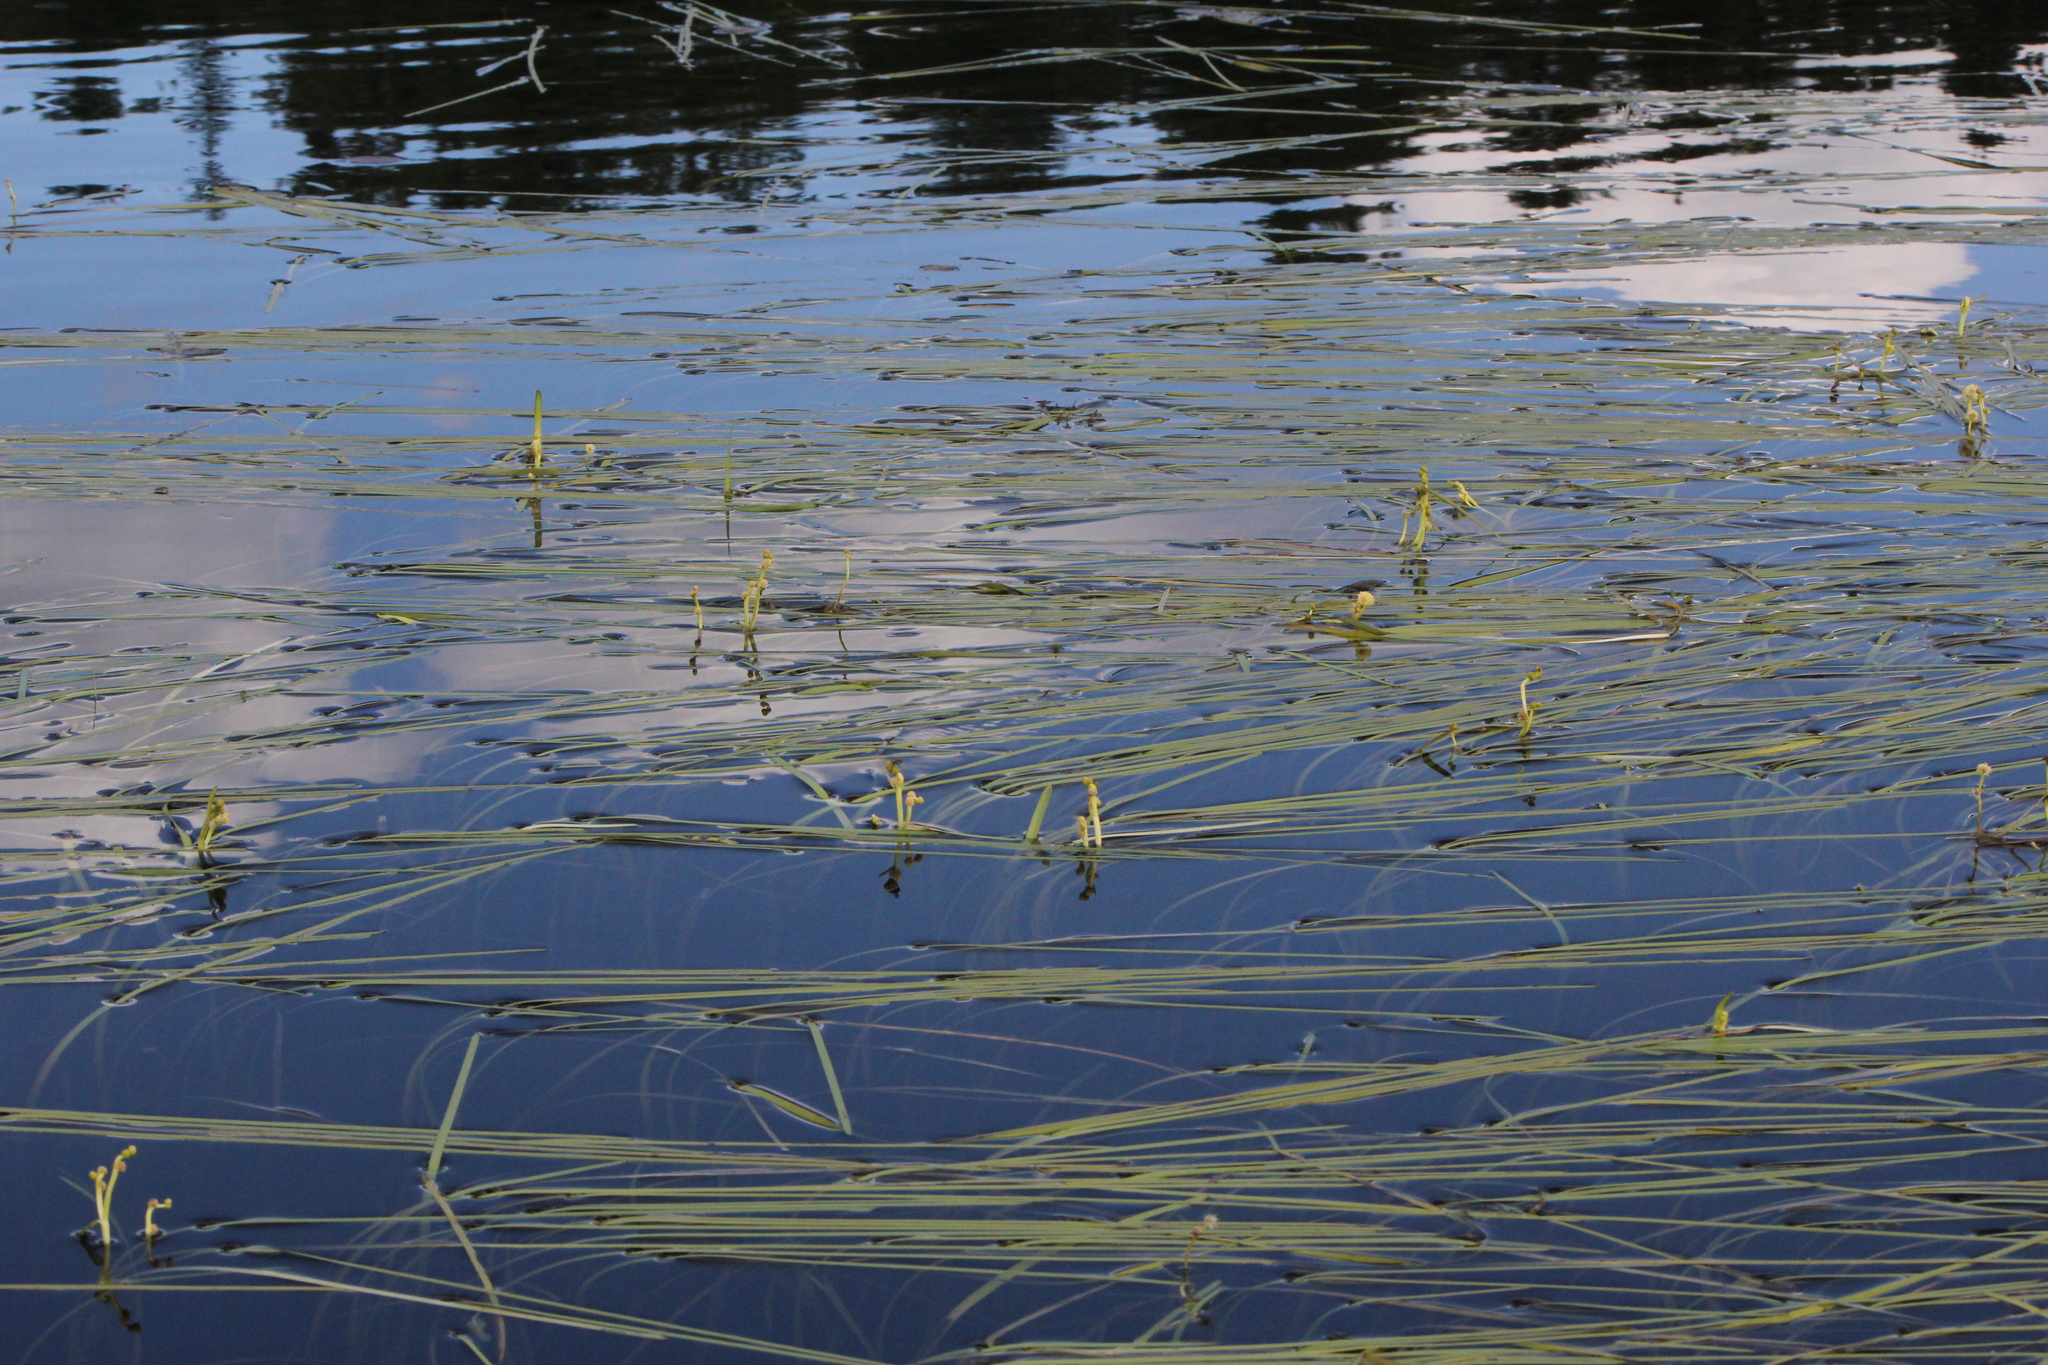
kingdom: Plantae
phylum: Tracheophyta
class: Liliopsida
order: Poales
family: Typhaceae
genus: Sparganium
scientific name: Sparganium fluctuans
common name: Floating burreed
